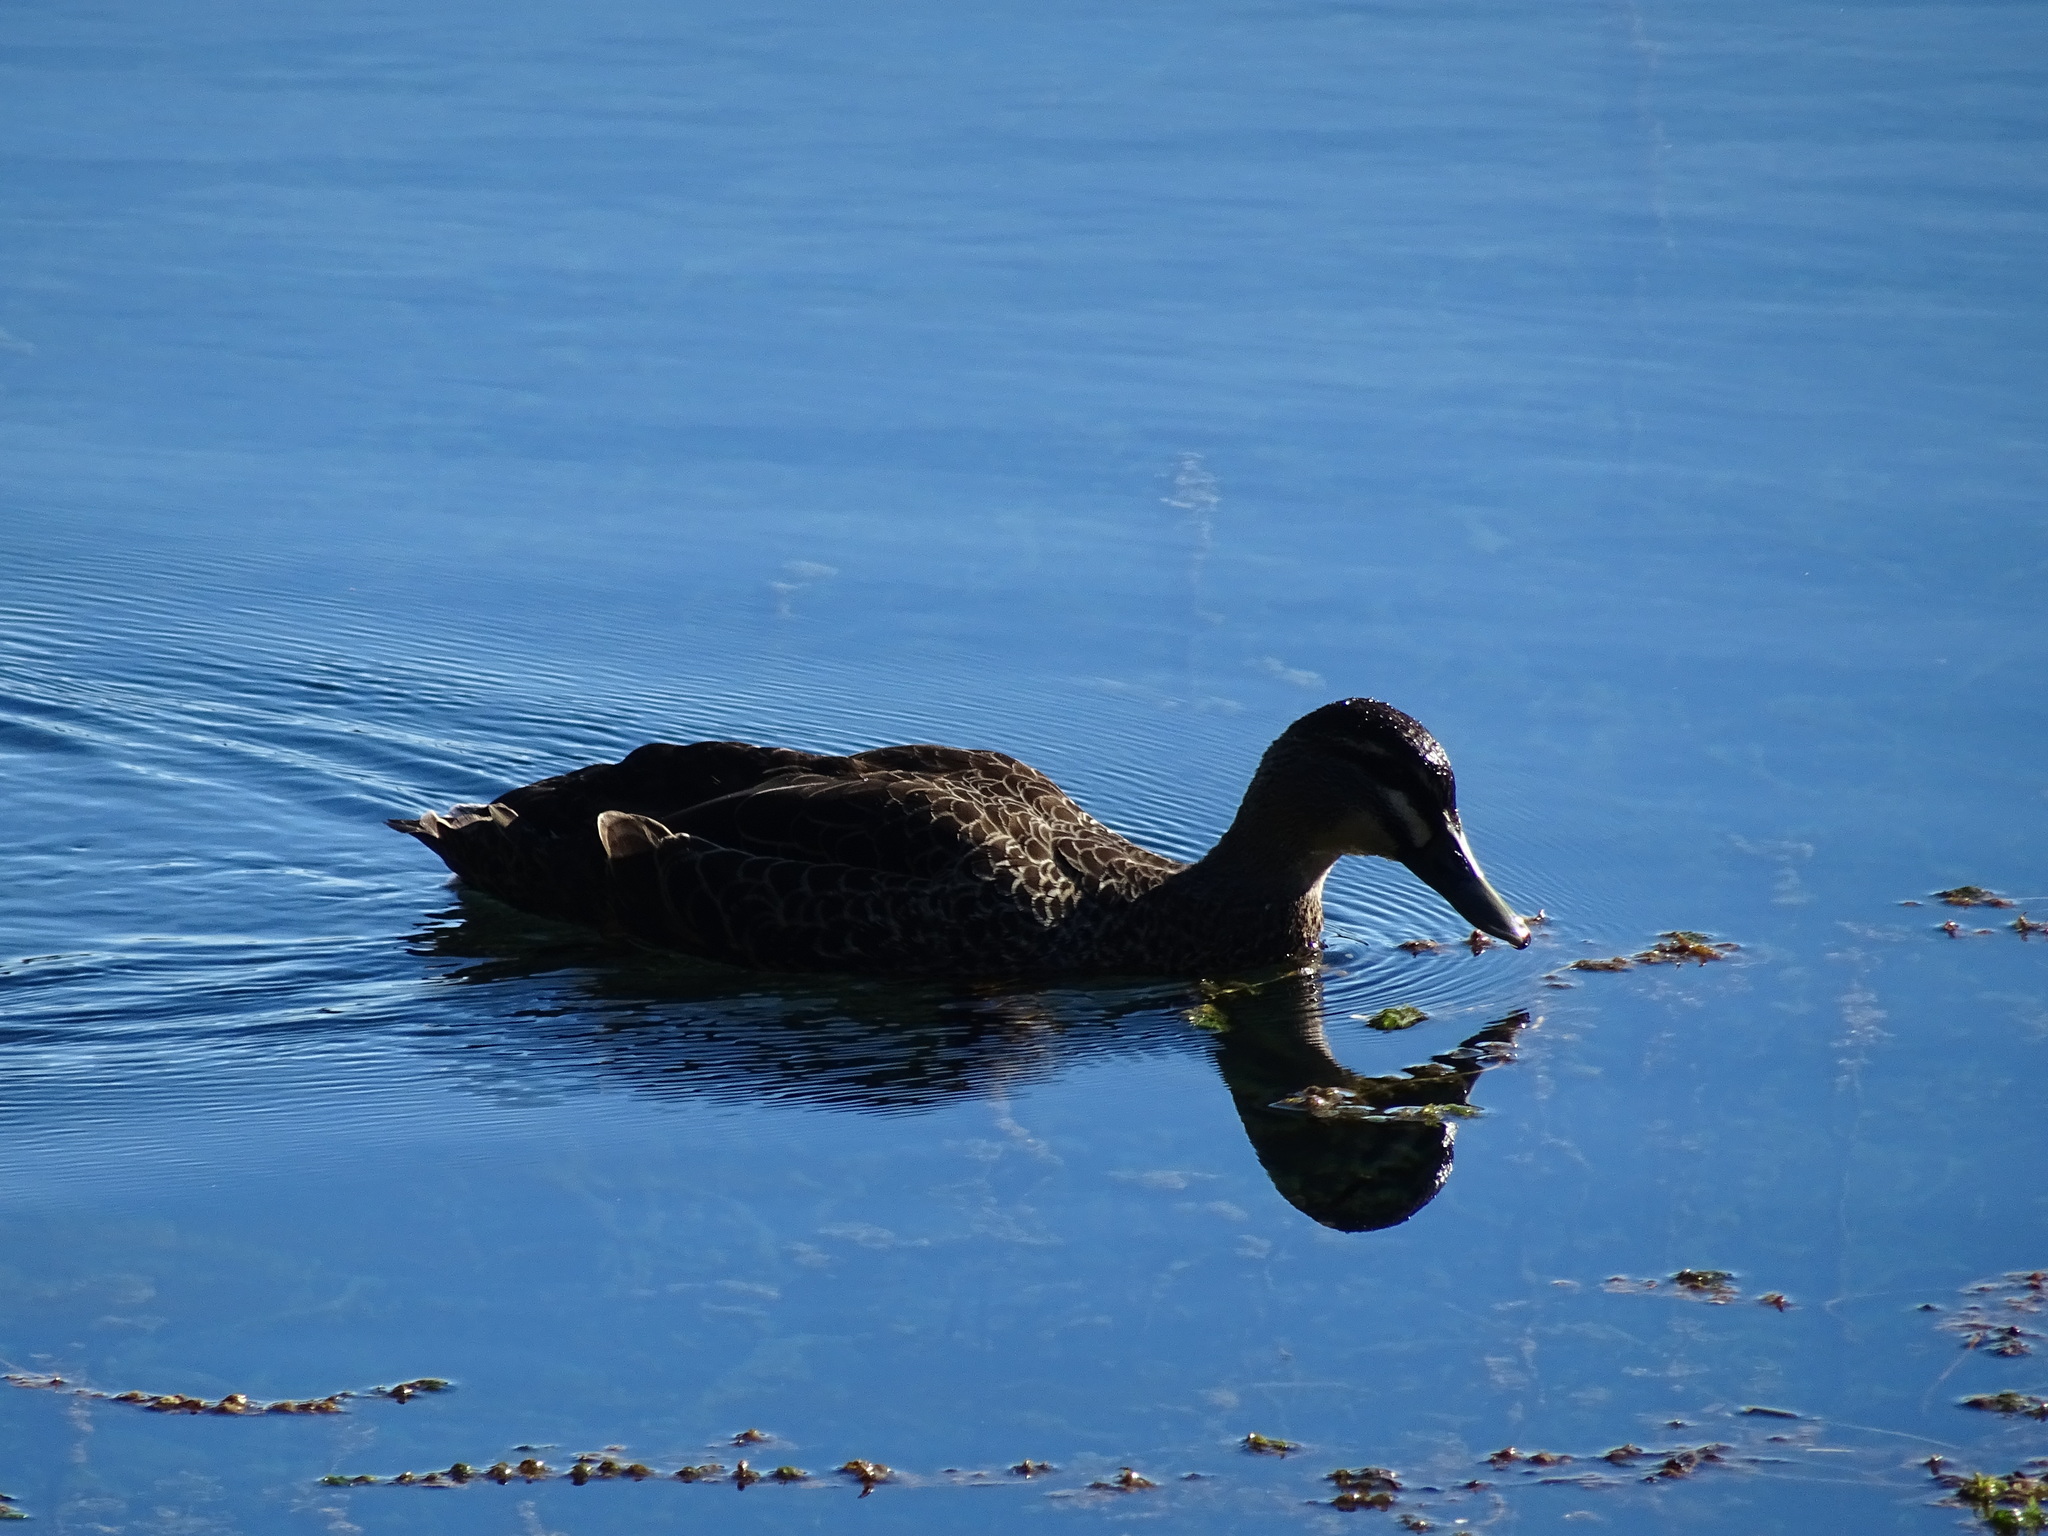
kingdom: Animalia
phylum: Chordata
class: Aves
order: Anseriformes
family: Anatidae
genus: Anas
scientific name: Anas
